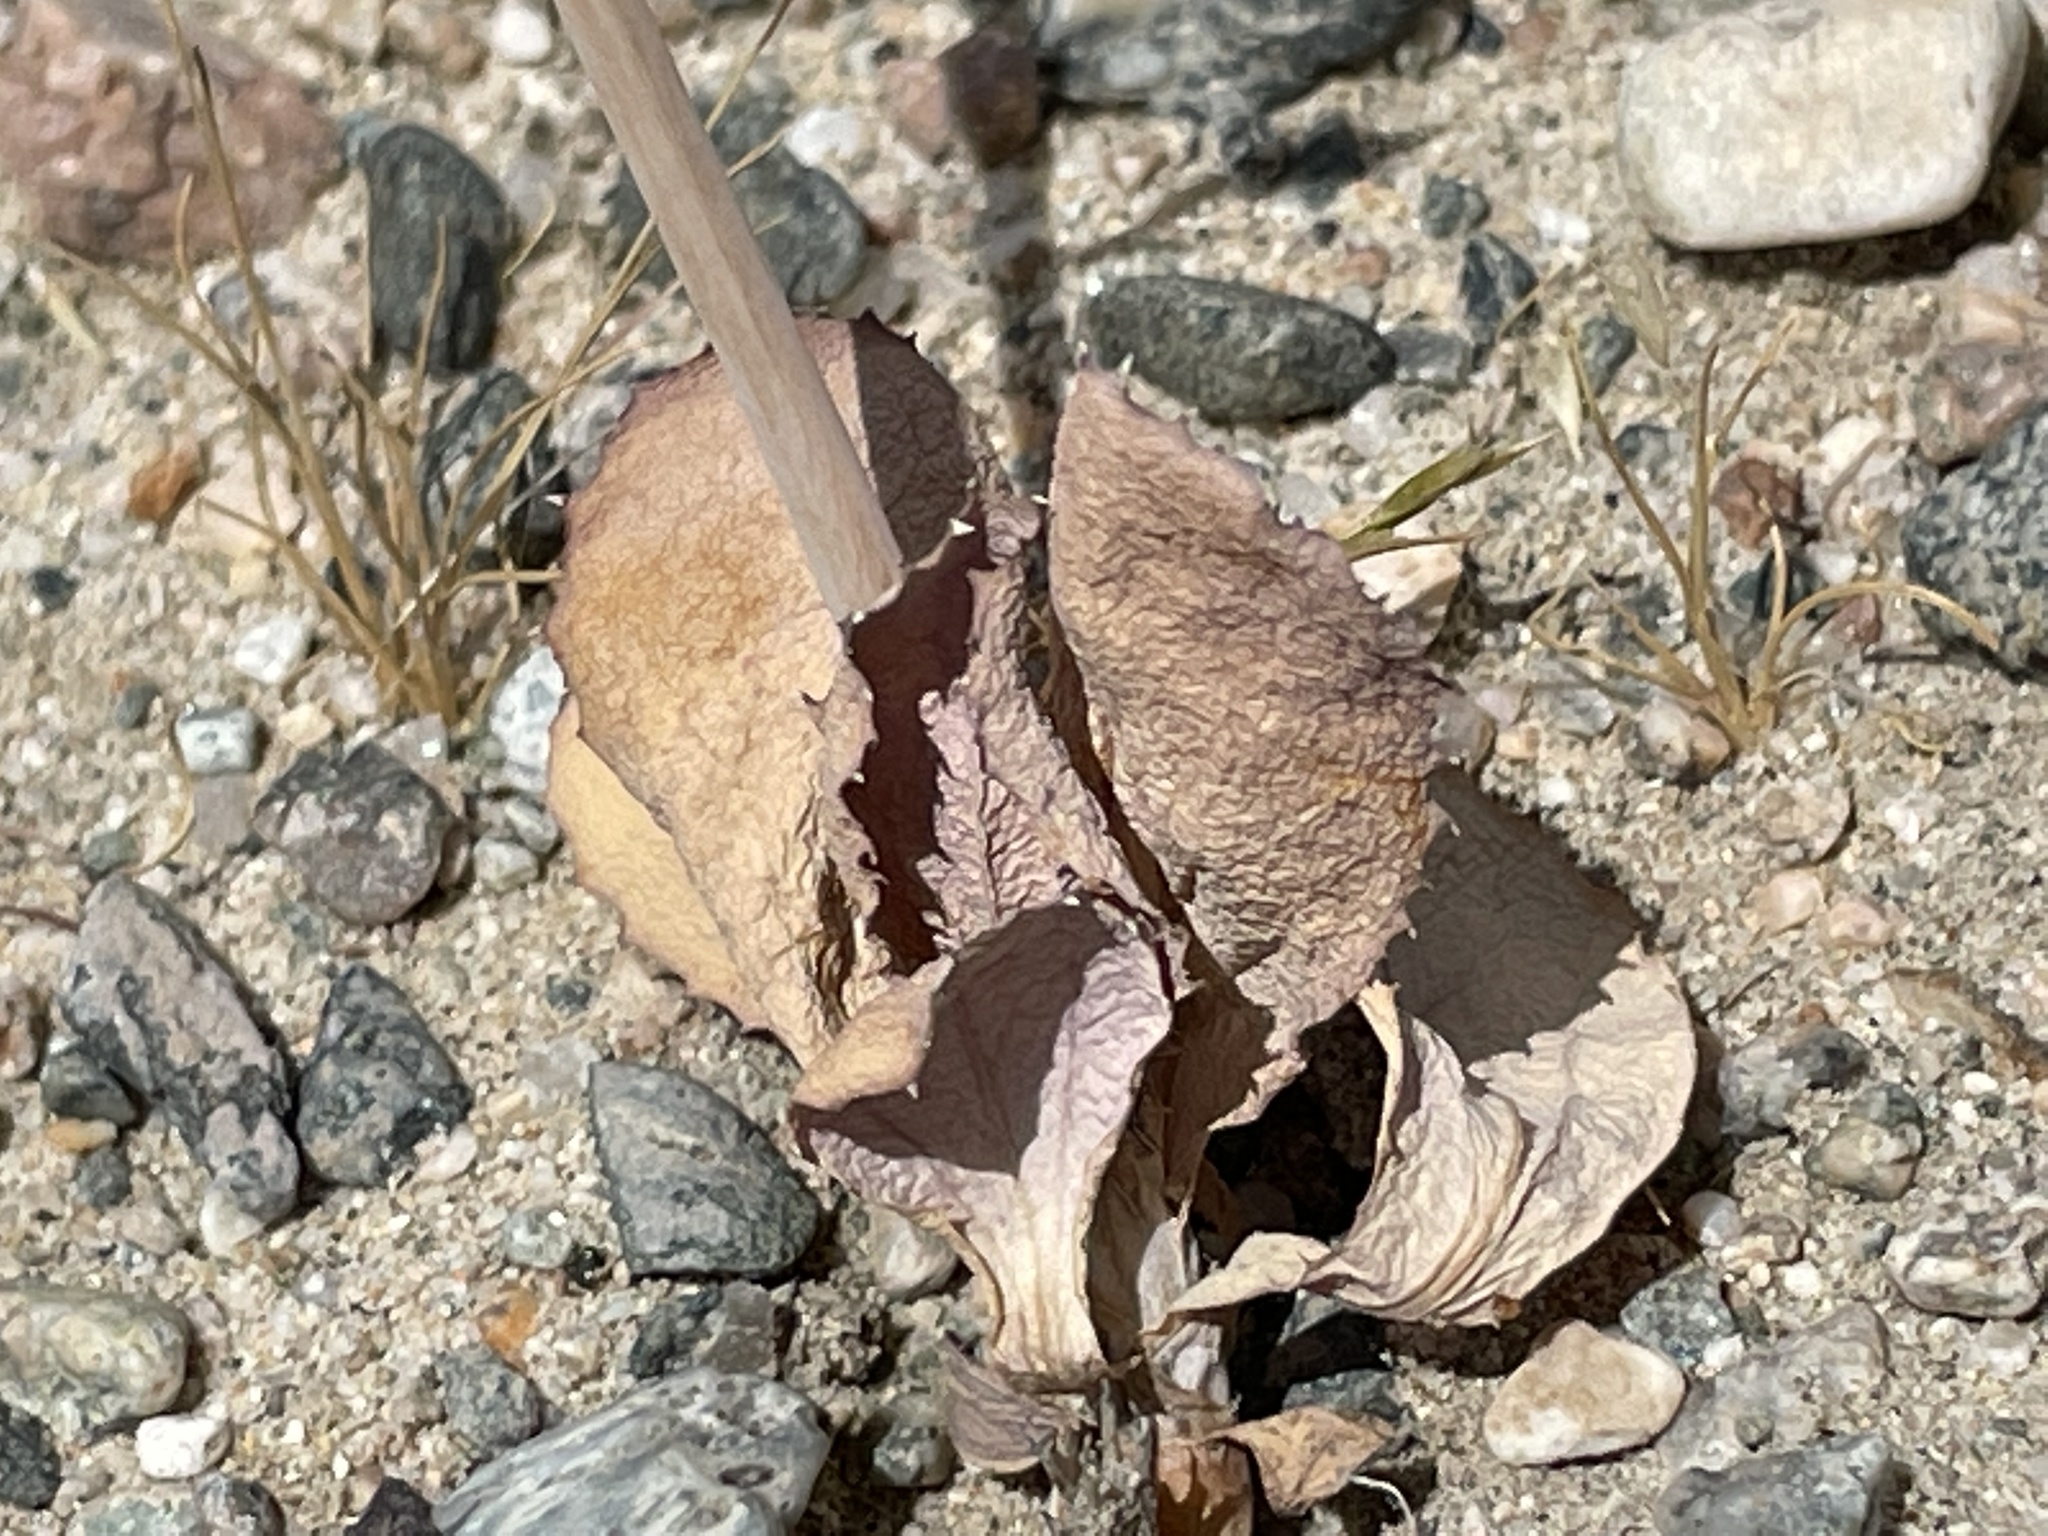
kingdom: Plantae
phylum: Tracheophyta
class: Magnoliopsida
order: Asterales
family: Asteraceae
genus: Atrichoseris
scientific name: Atrichoseris platyphylla
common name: Tobaccoweed
